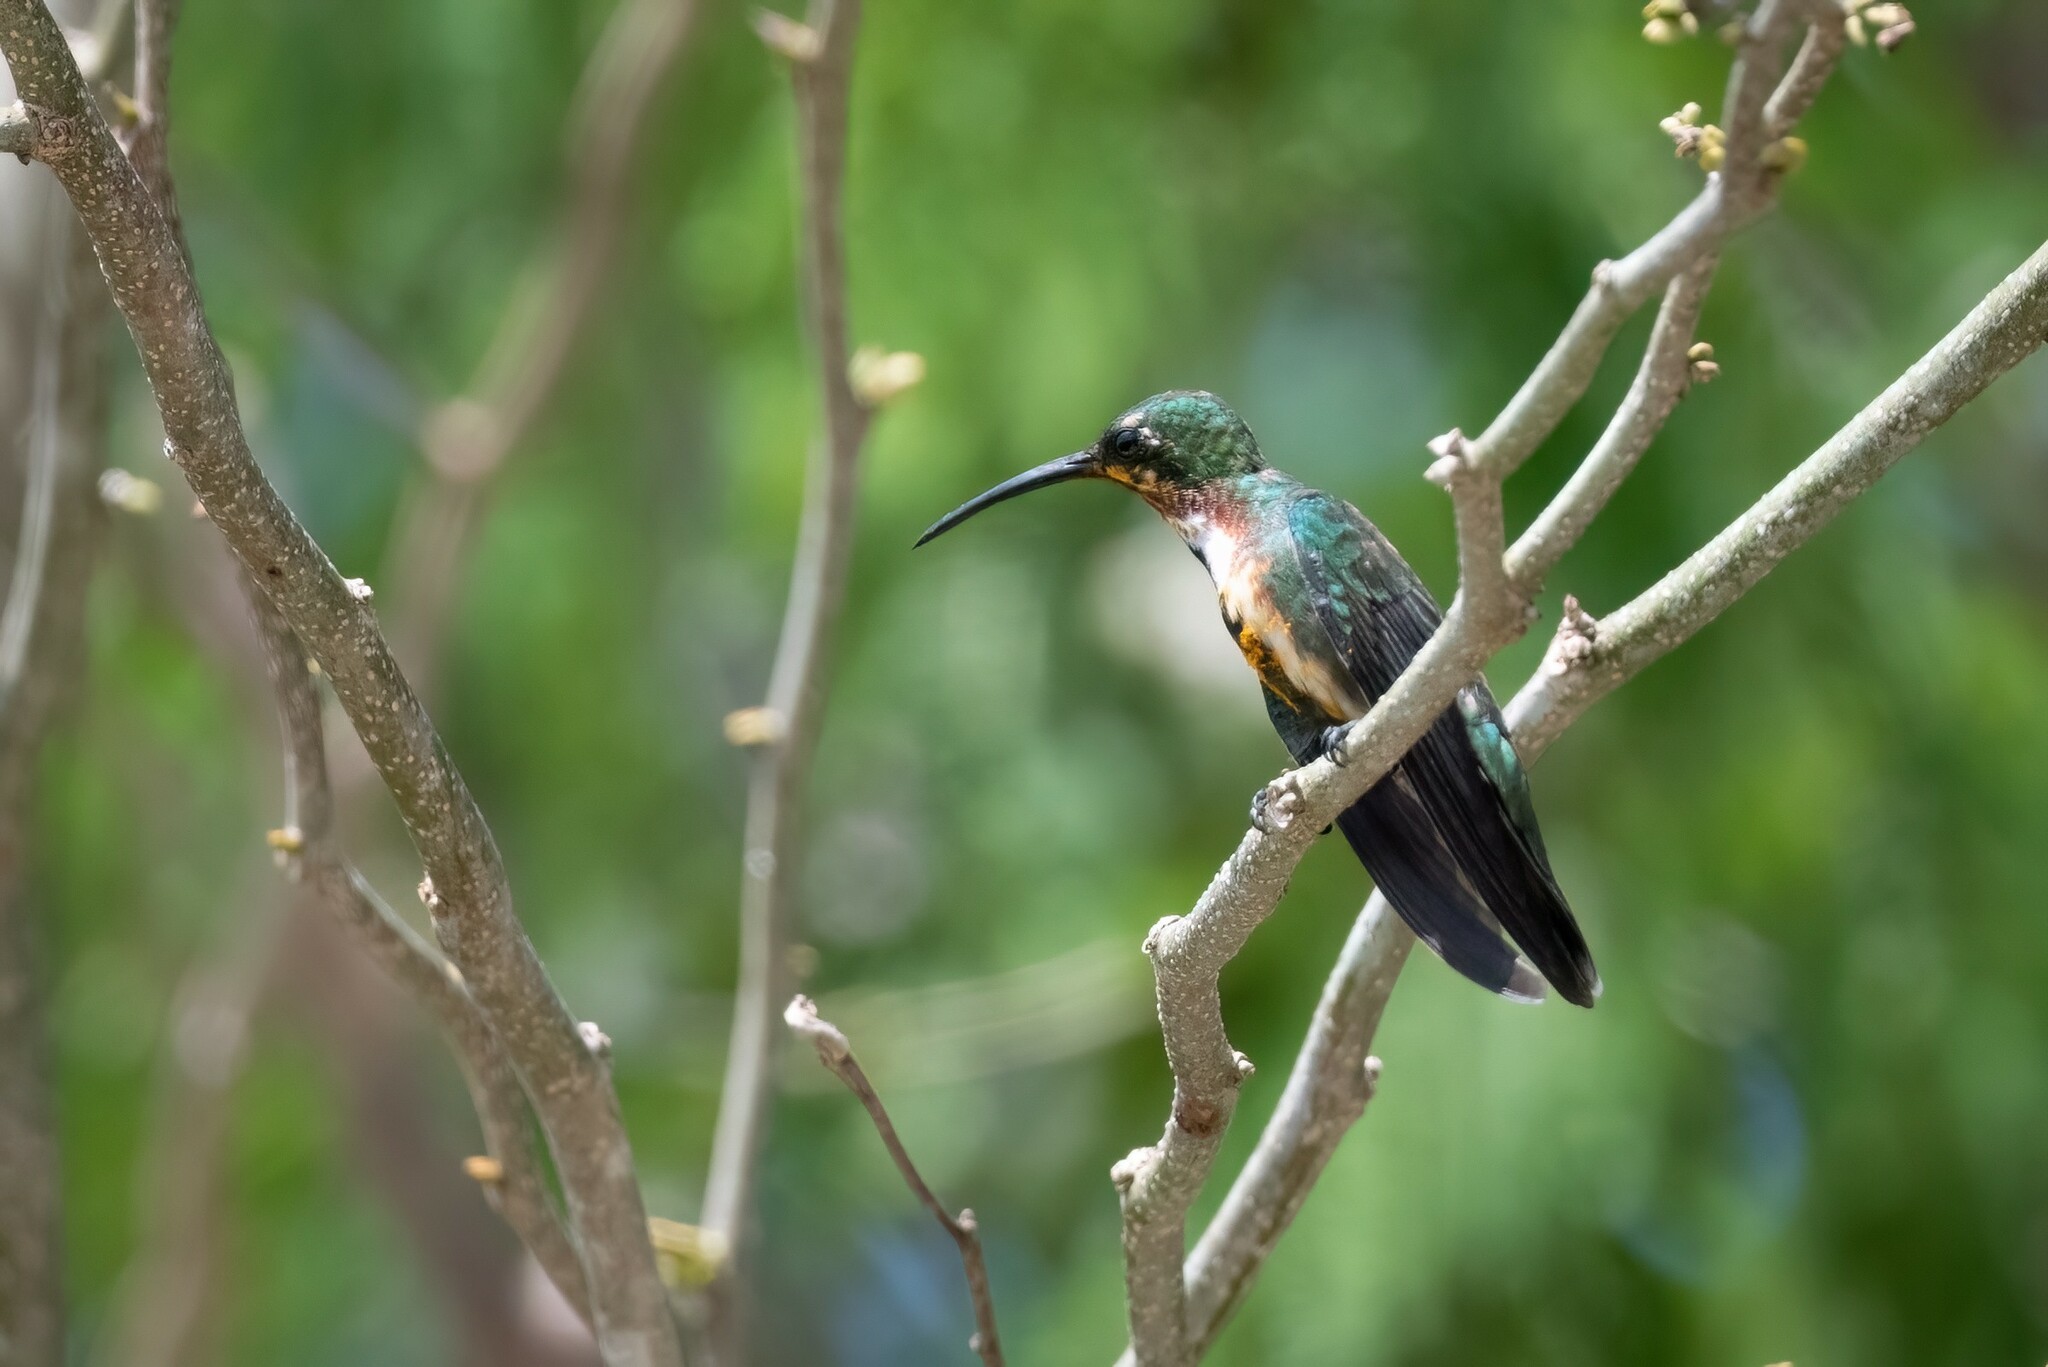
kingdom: Animalia
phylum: Chordata
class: Aves
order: Apodiformes
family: Trochilidae
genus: Anthracothorax
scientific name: Anthracothorax prevostii
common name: Green-breasted mango
